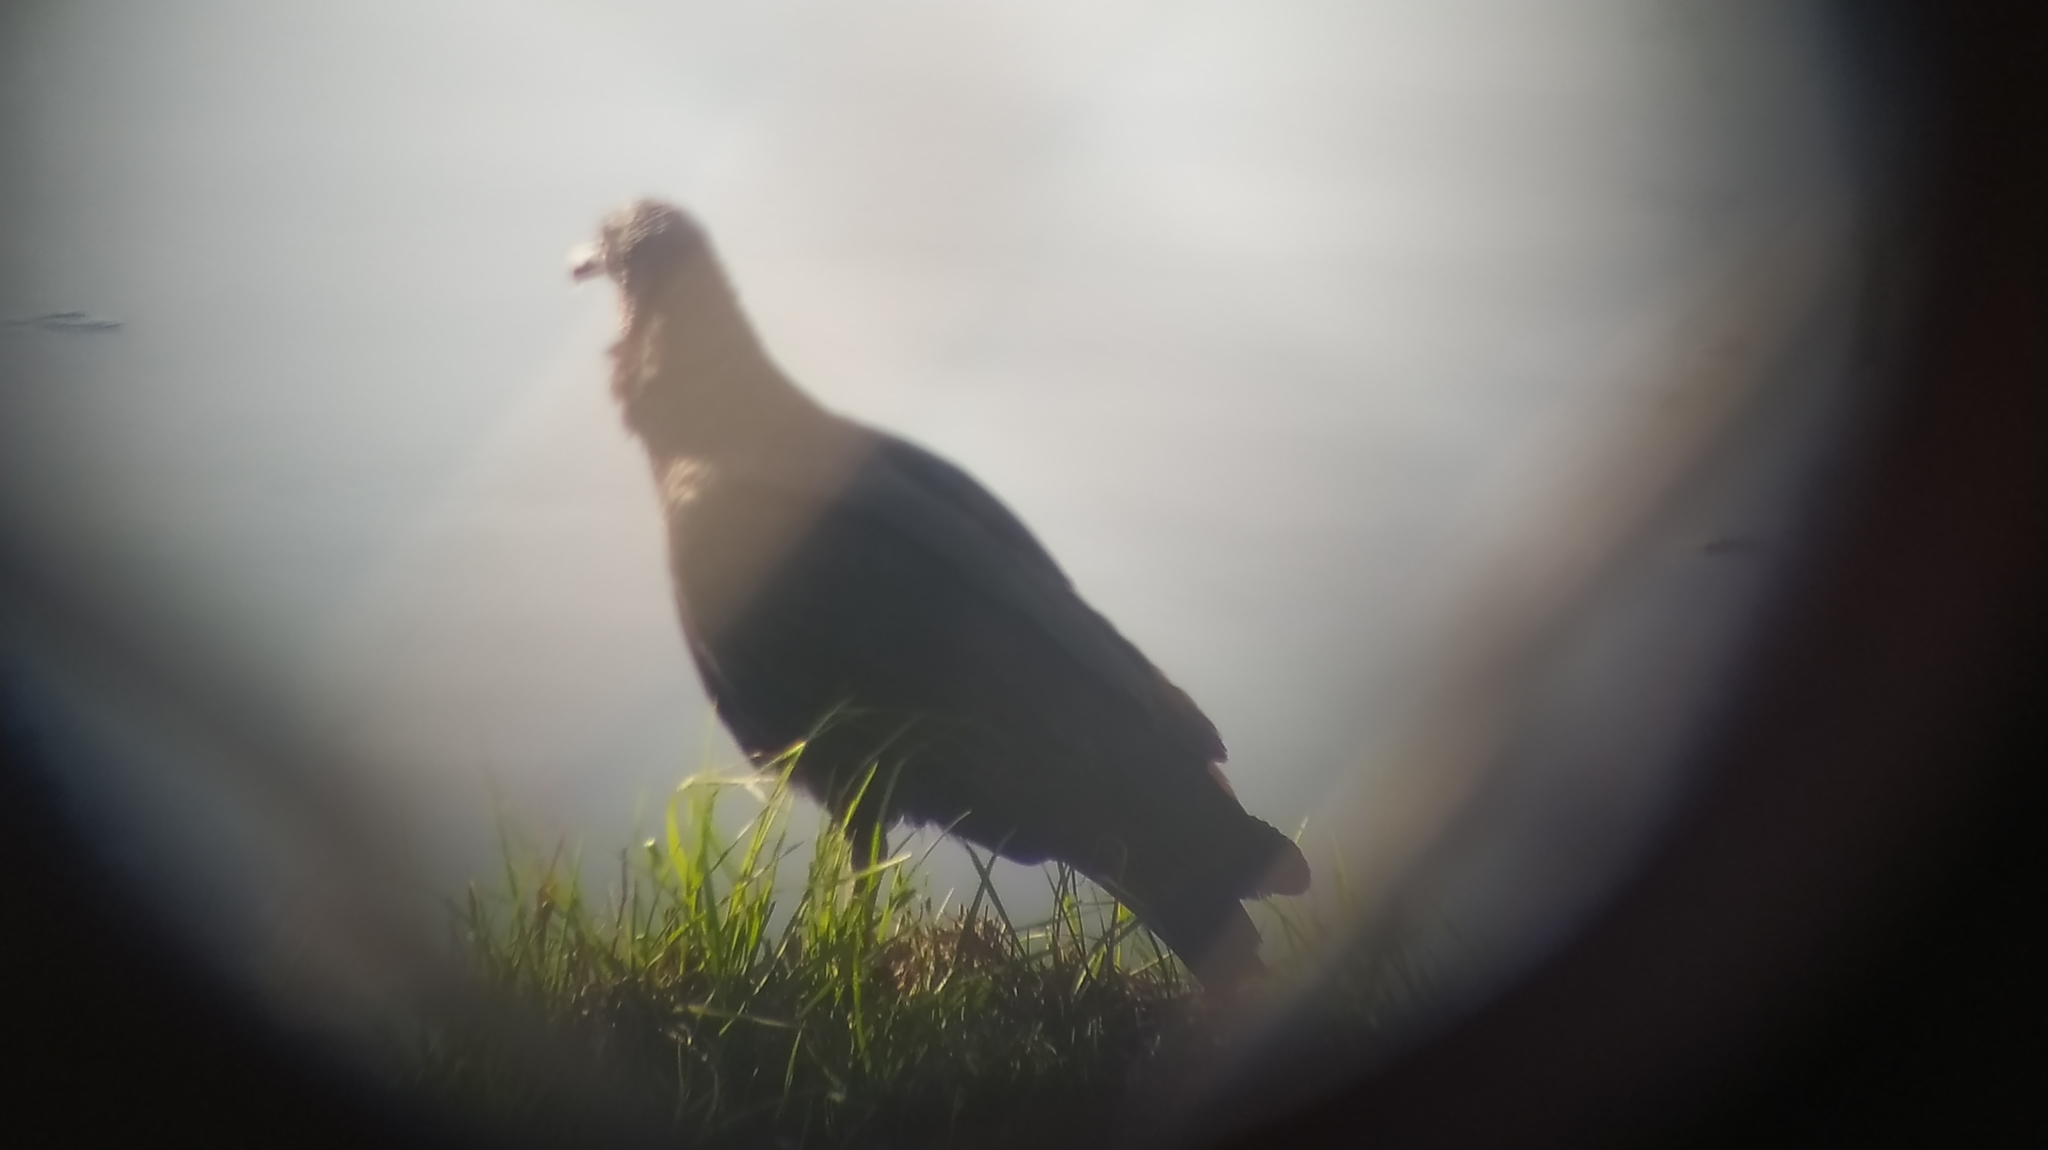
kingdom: Animalia
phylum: Chordata
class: Aves
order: Accipitriformes
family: Cathartidae
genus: Coragyps
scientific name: Coragyps atratus
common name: Black vulture
